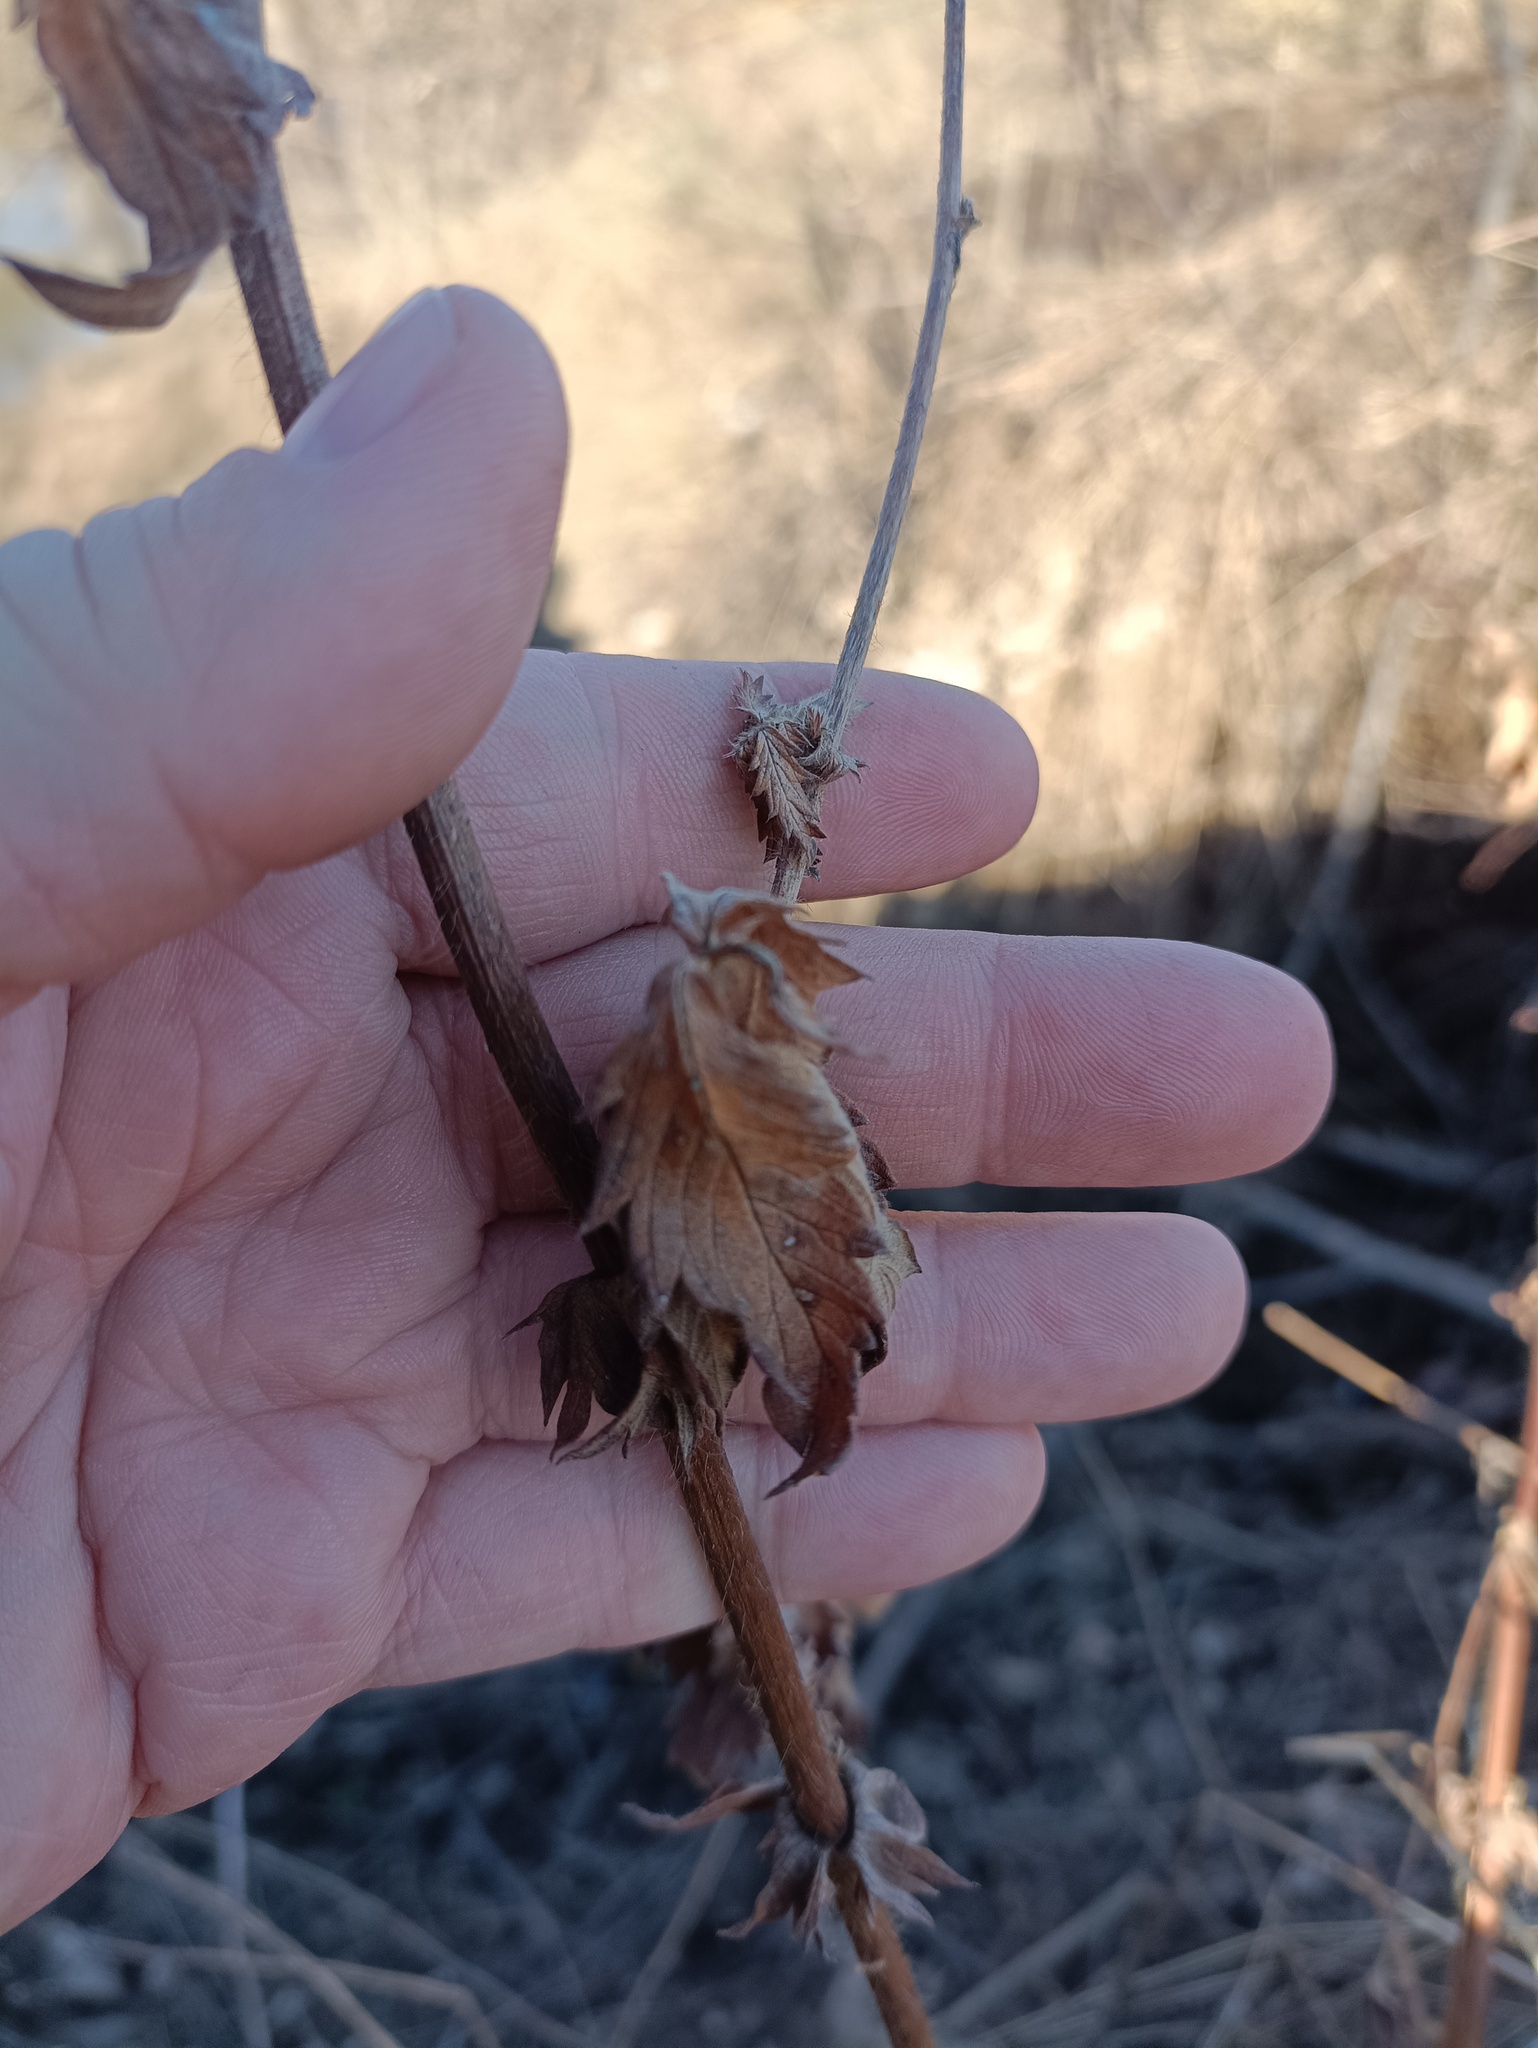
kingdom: Plantae
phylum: Tracheophyta
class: Magnoliopsida
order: Rosales
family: Rosaceae
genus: Agrimonia
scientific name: Agrimonia eupatoria
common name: Agrimony
